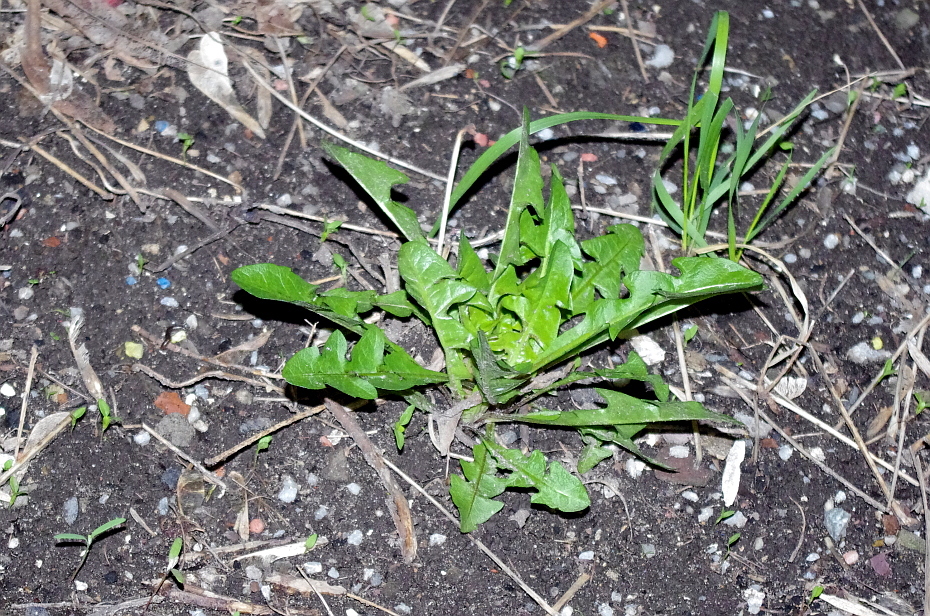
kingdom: Plantae
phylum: Tracheophyta
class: Magnoliopsida
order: Asterales
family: Asteraceae
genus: Taraxacum
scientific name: Taraxacum officinale
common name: Common dandelion
